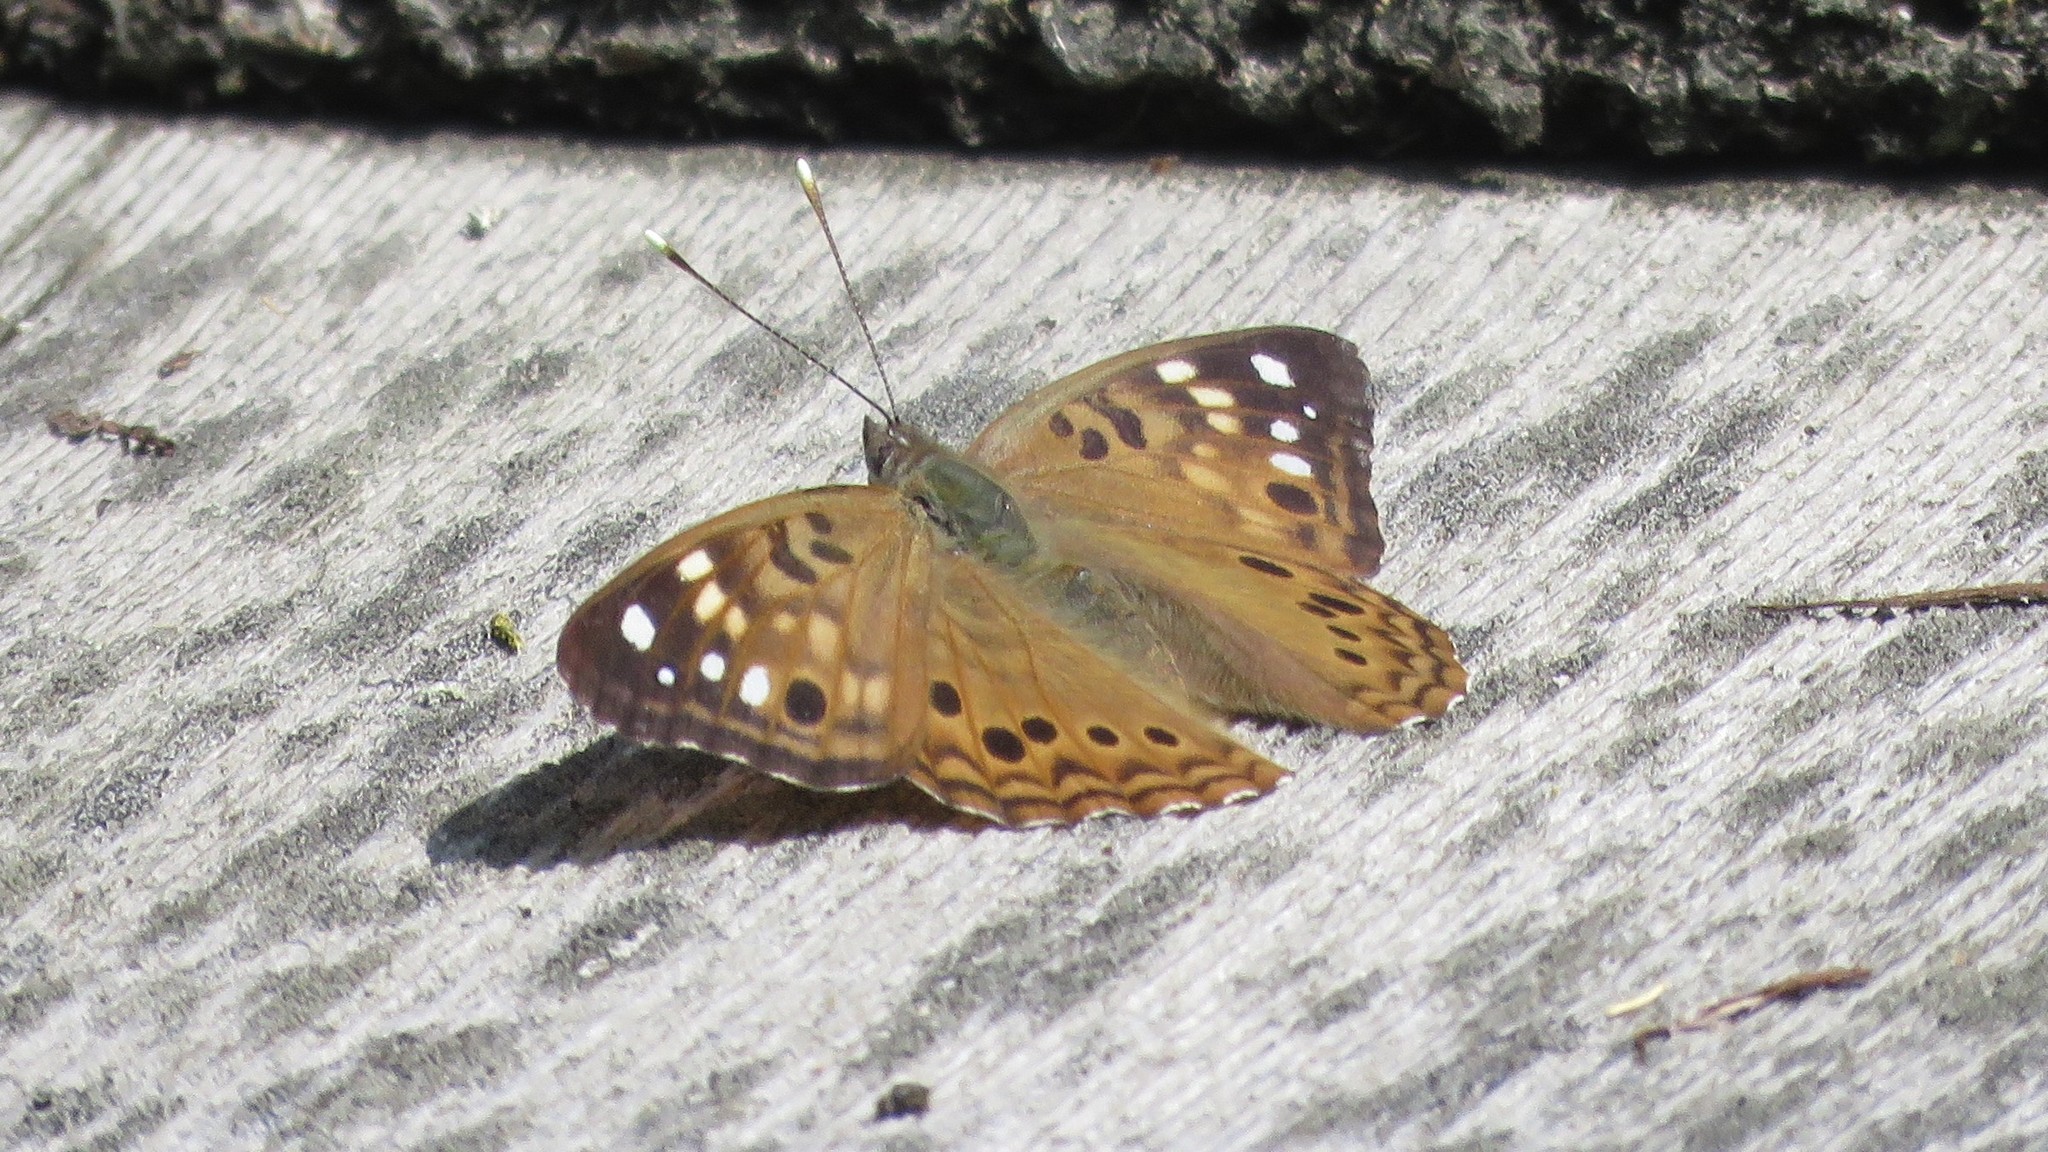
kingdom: Animalia
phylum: Arthropoda
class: Insecta
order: Lepidoptera
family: Nymphalidae
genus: Asterocampa
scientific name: Asterocampa celtis
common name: Hackberry emperor
